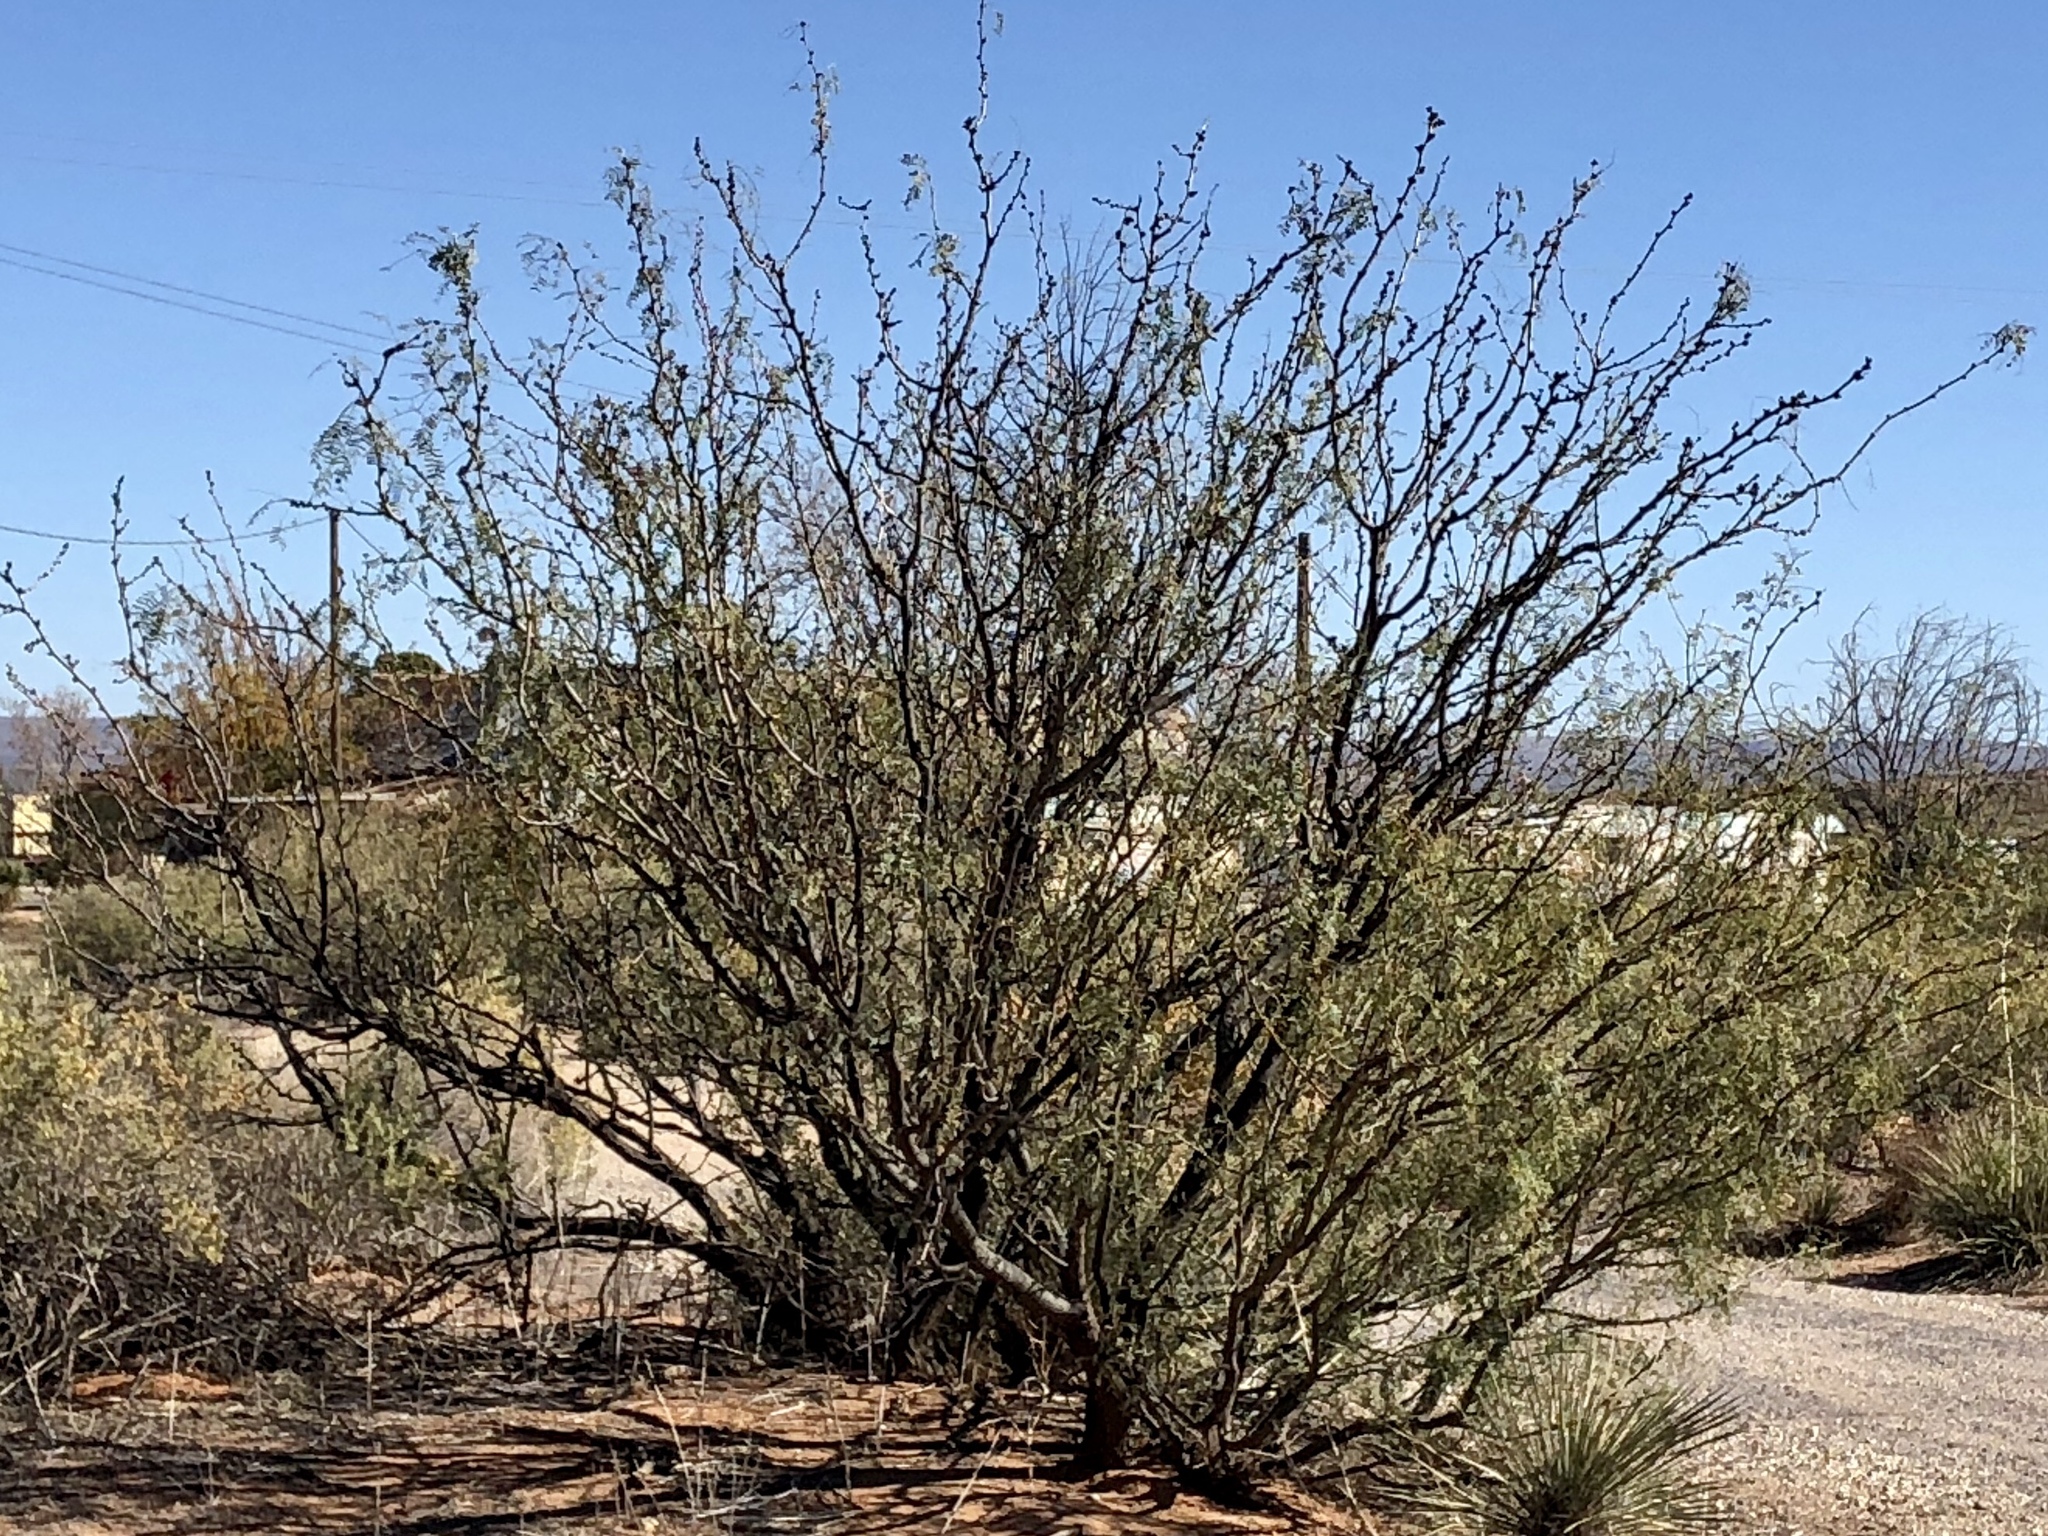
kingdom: Plantae
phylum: Tracheophyta
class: Magnoliopsida
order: Fabales
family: Fabaceae
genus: Prosopis
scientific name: Prosopis glandulosa
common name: Honey mesquite
